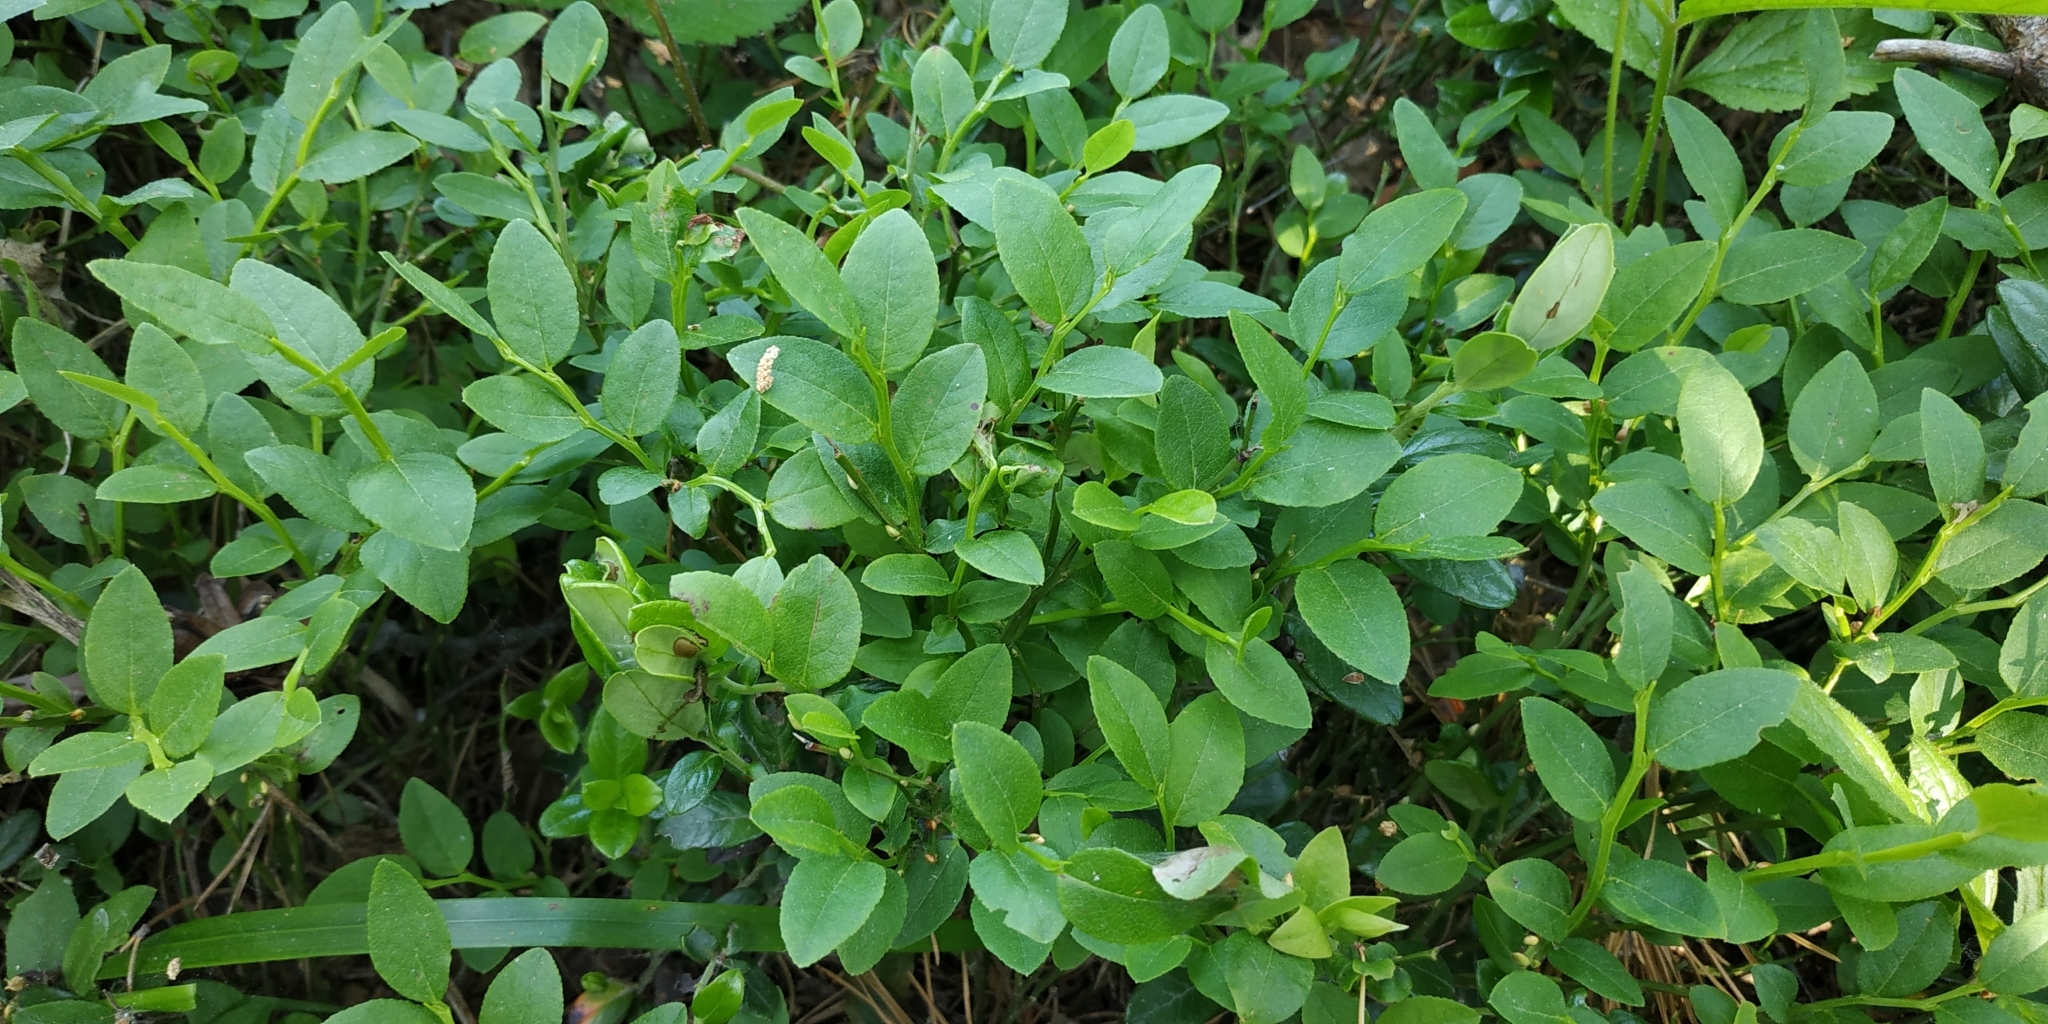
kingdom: Plantae
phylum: Tracheophyta
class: Magnoliopsida
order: Ericales
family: Ericaceae
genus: Vaccinium
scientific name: Vaccinium myrtillus
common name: Bilberry
